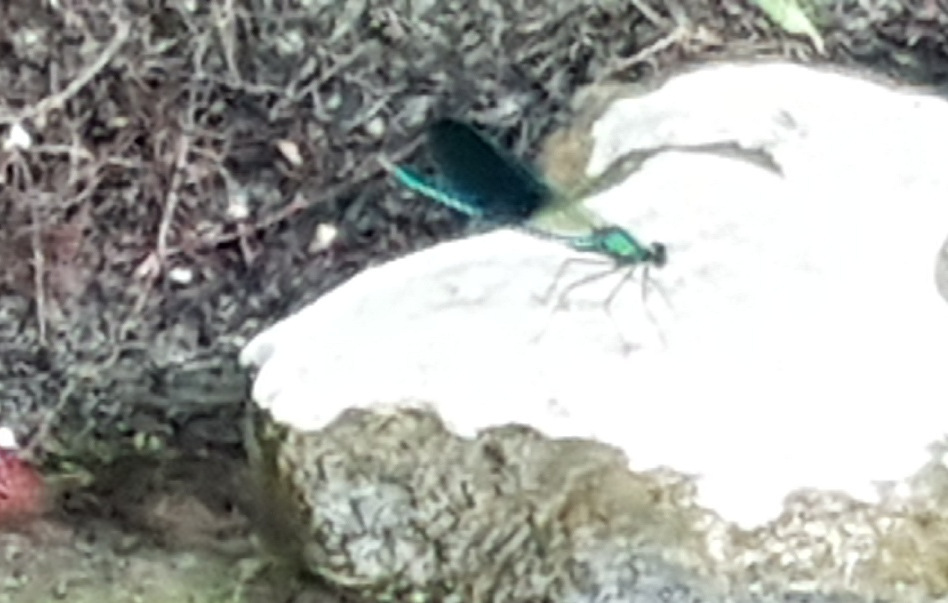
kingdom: Animalia
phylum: Arthropoda
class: Insecta
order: Odonata
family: Calopterygidae
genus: Calopteryx
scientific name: Calopteryx xanthostoma
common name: Western demoiselle
